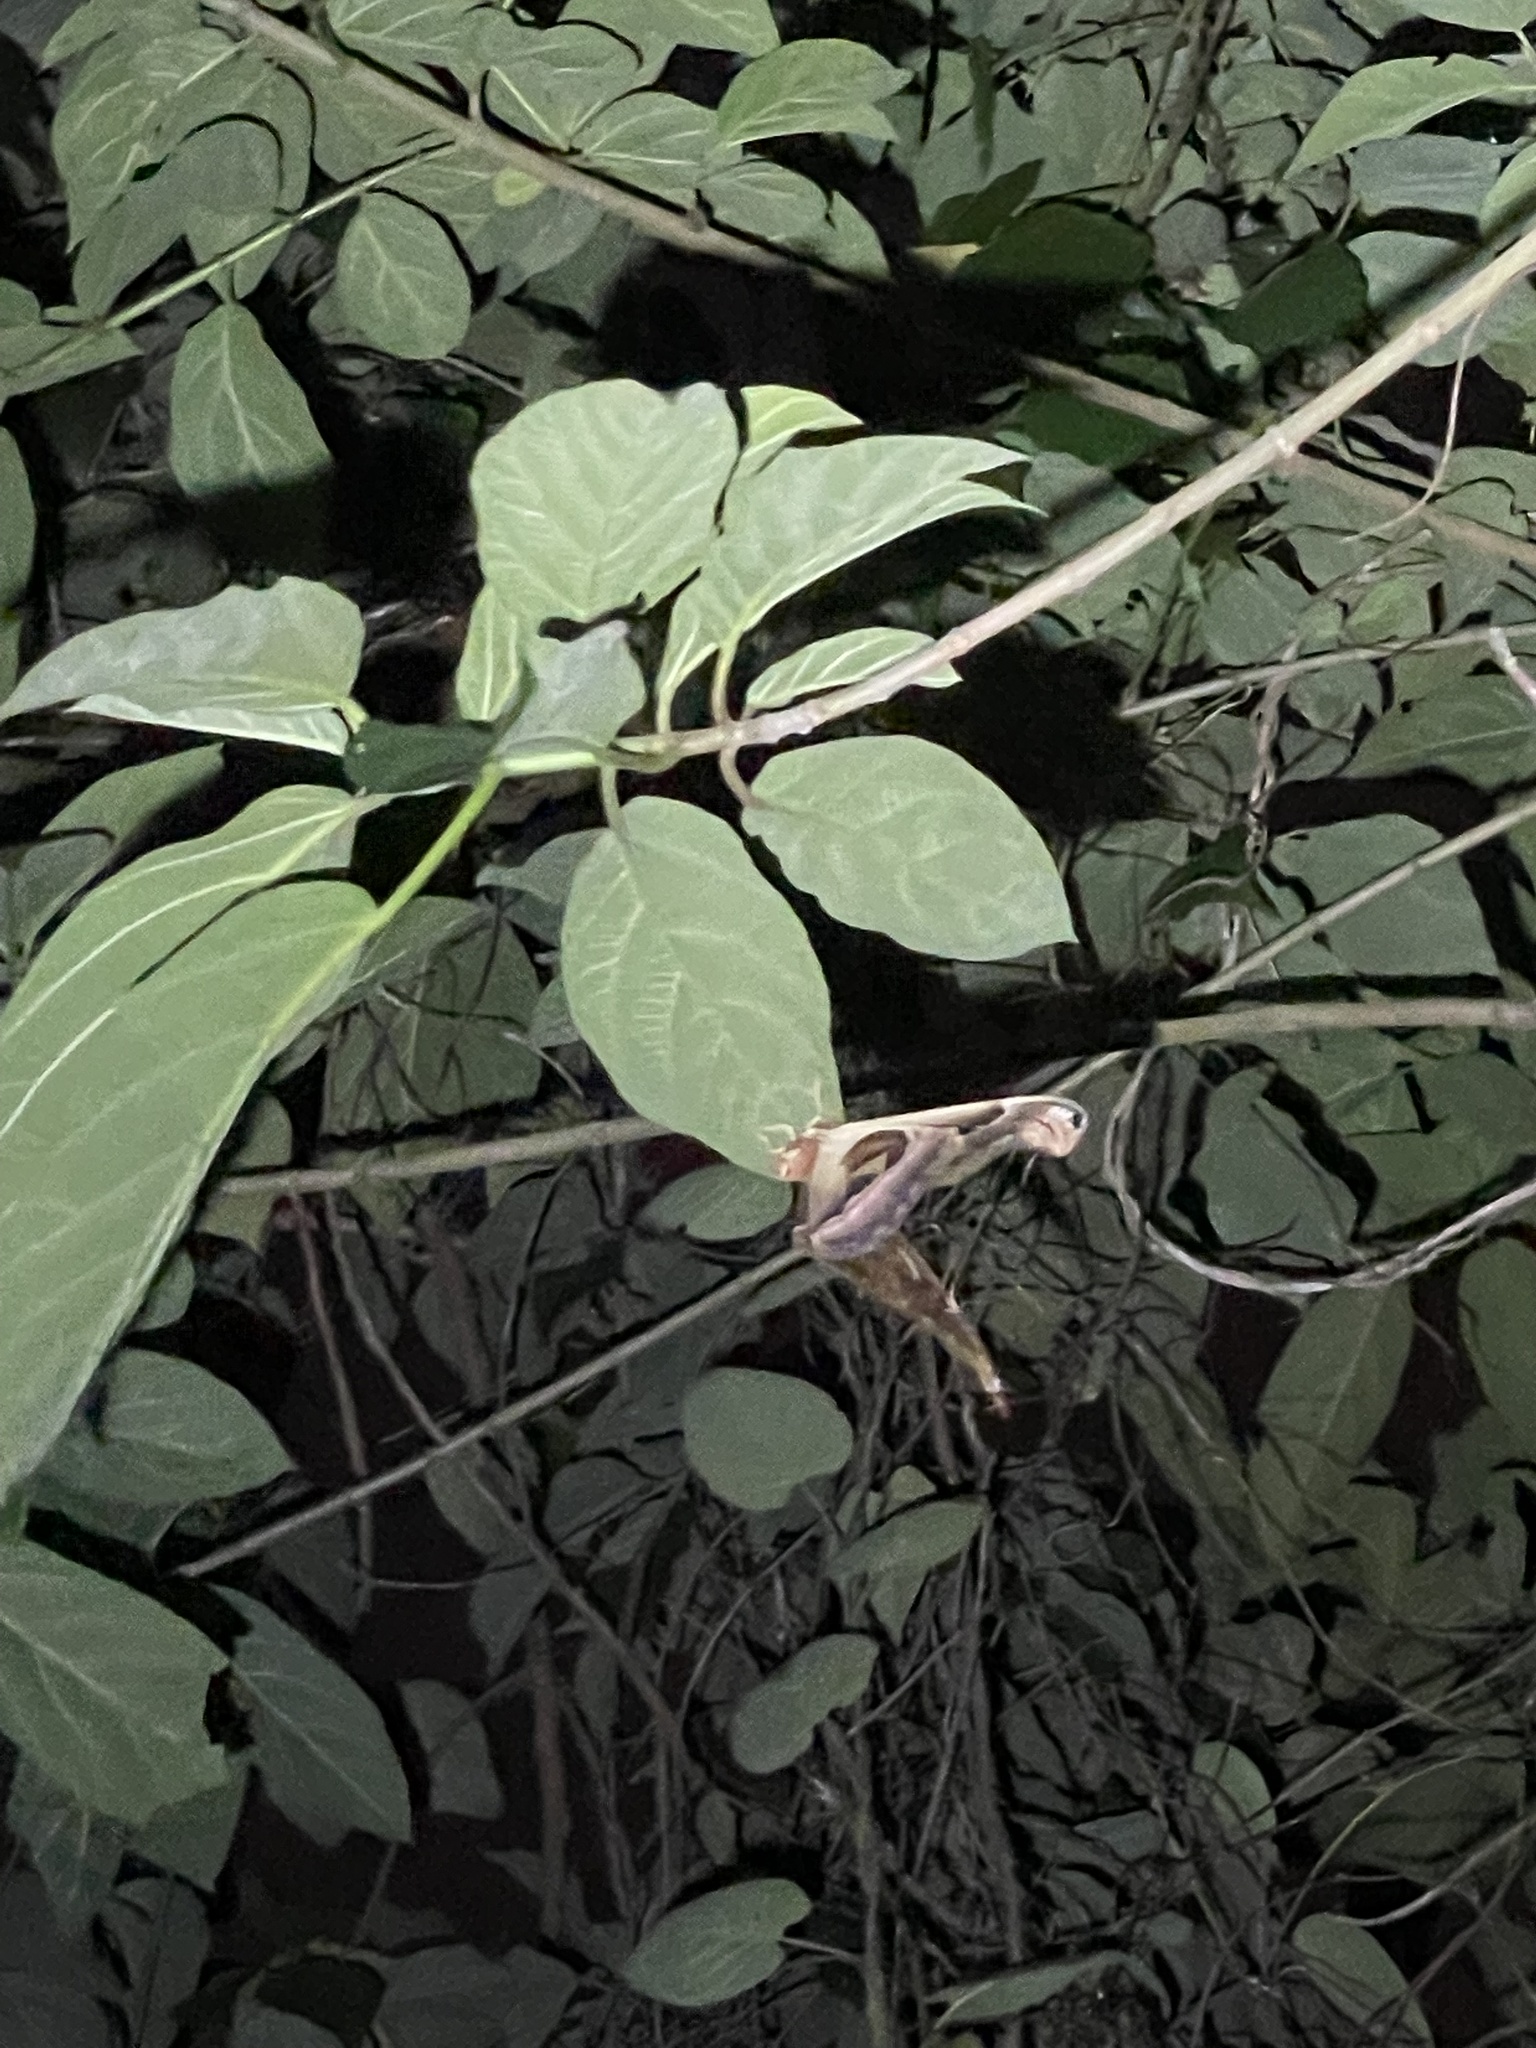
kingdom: Animalia
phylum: Arthropoda
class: Insecta
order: Lepidoptera
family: Saturniidae
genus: Attacus
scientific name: Attacus atlas
